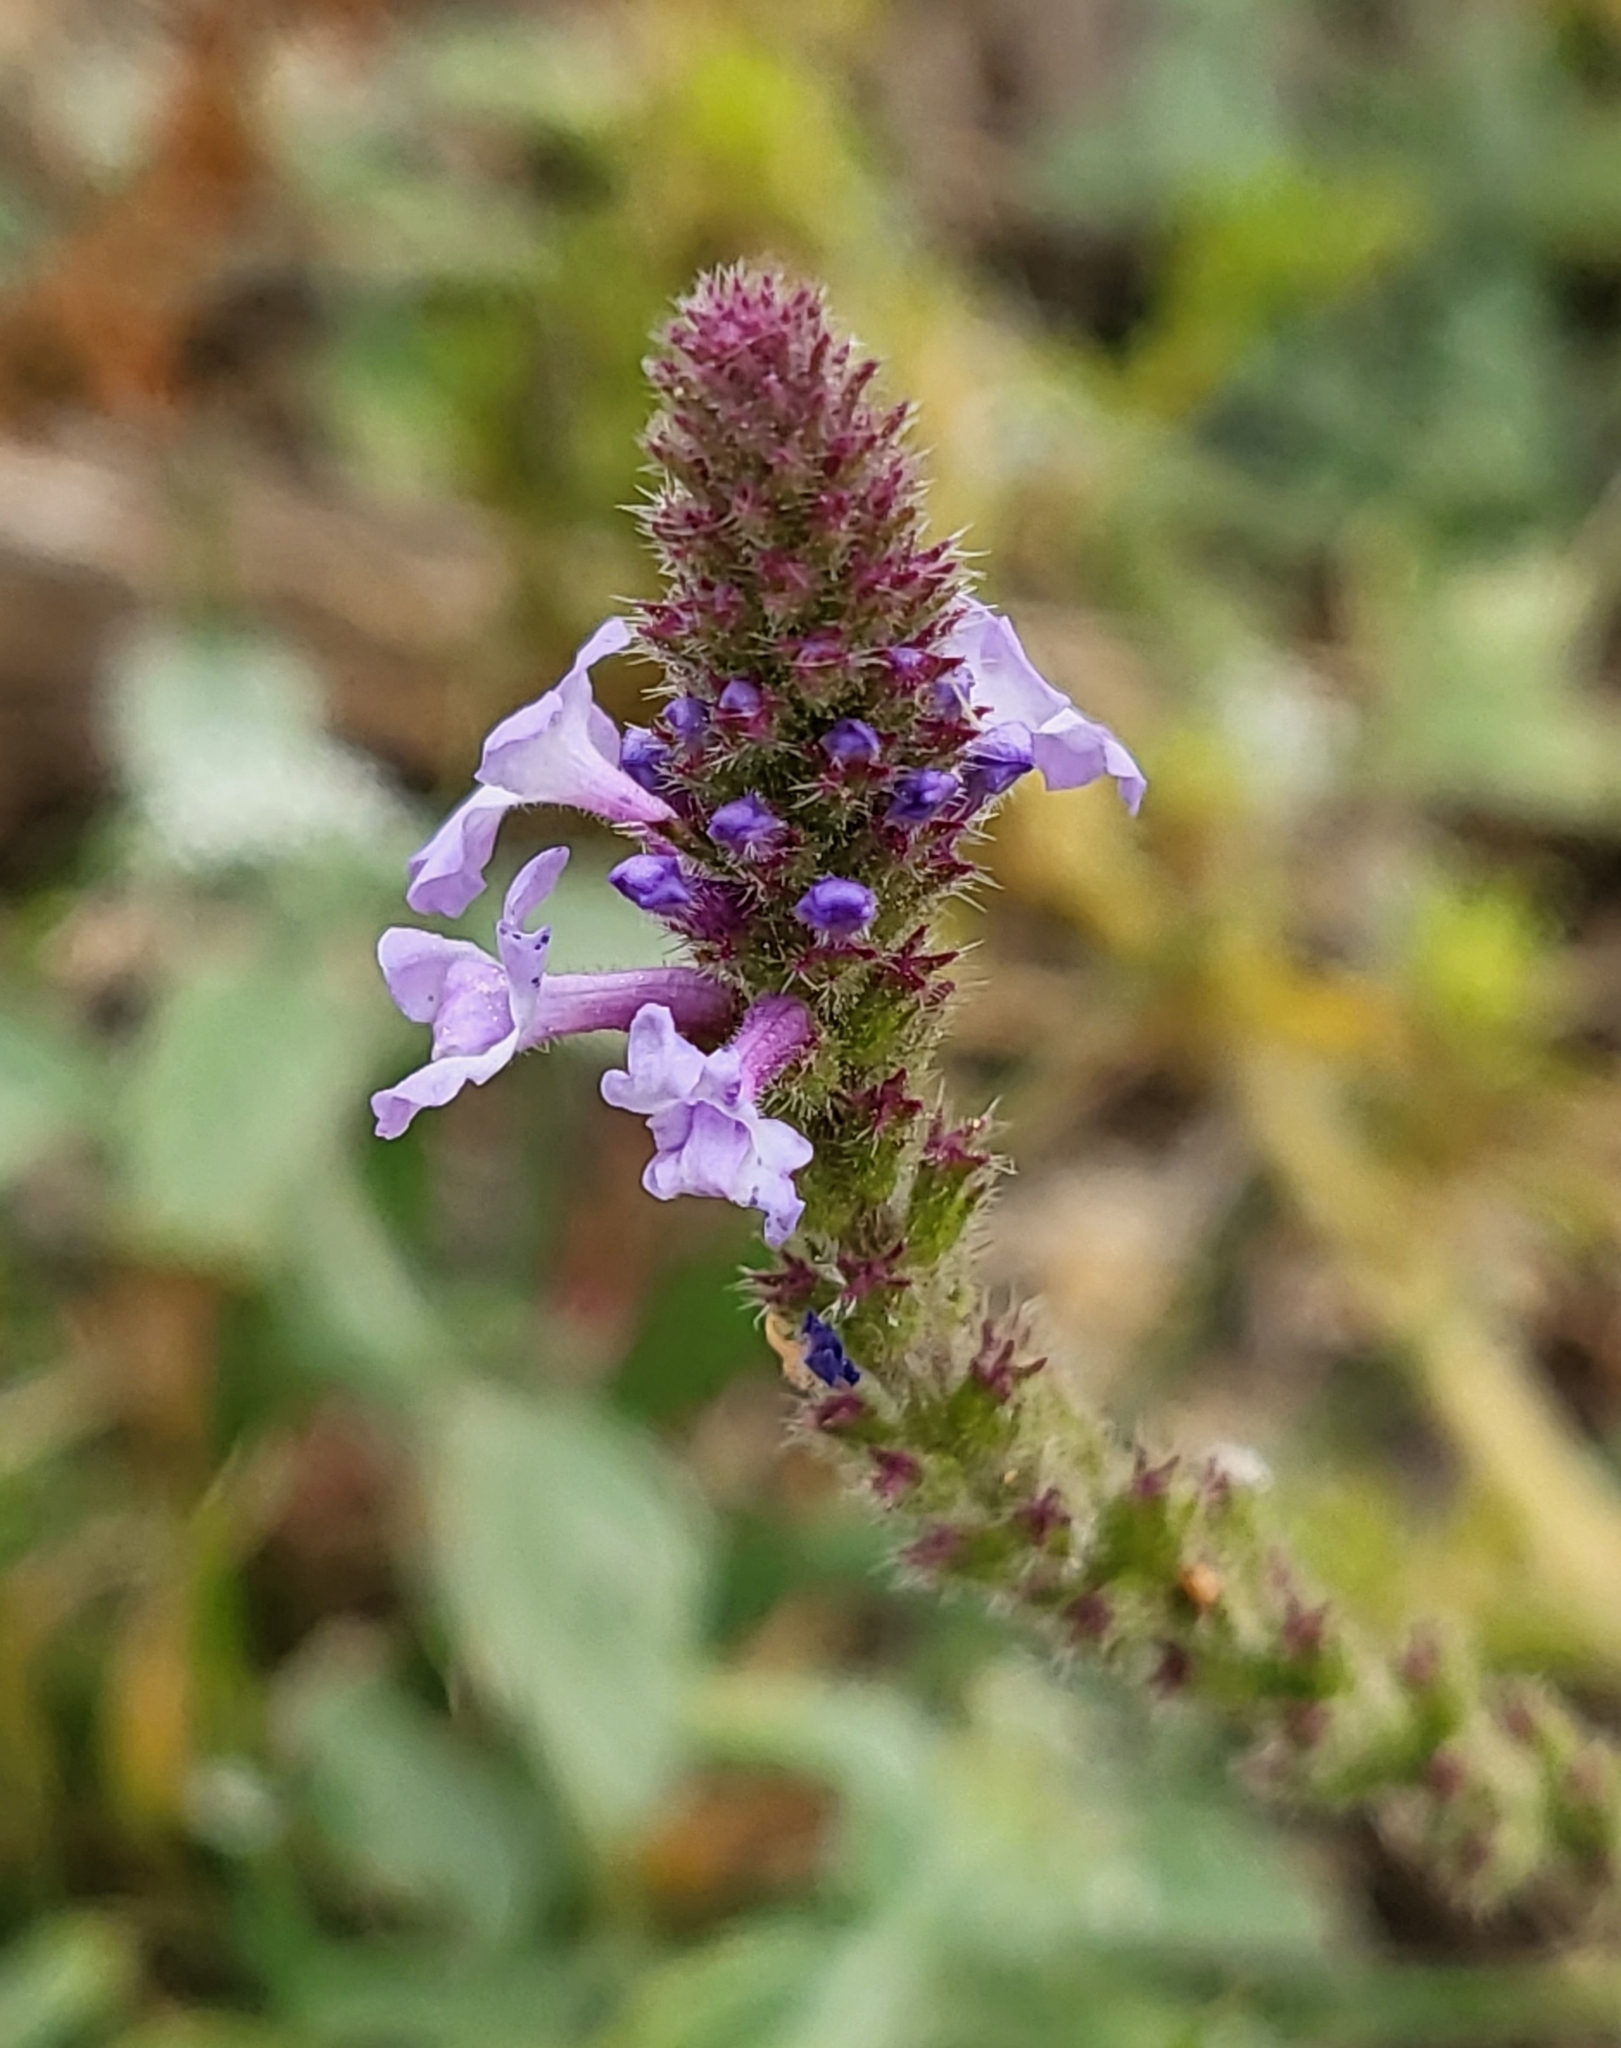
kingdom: Plantae
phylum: Tracheophyta
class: Magnoliopsida
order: Lamiales
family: Verbenaceae
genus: Verbena
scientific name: Verbena lasiostachys
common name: Vervain
